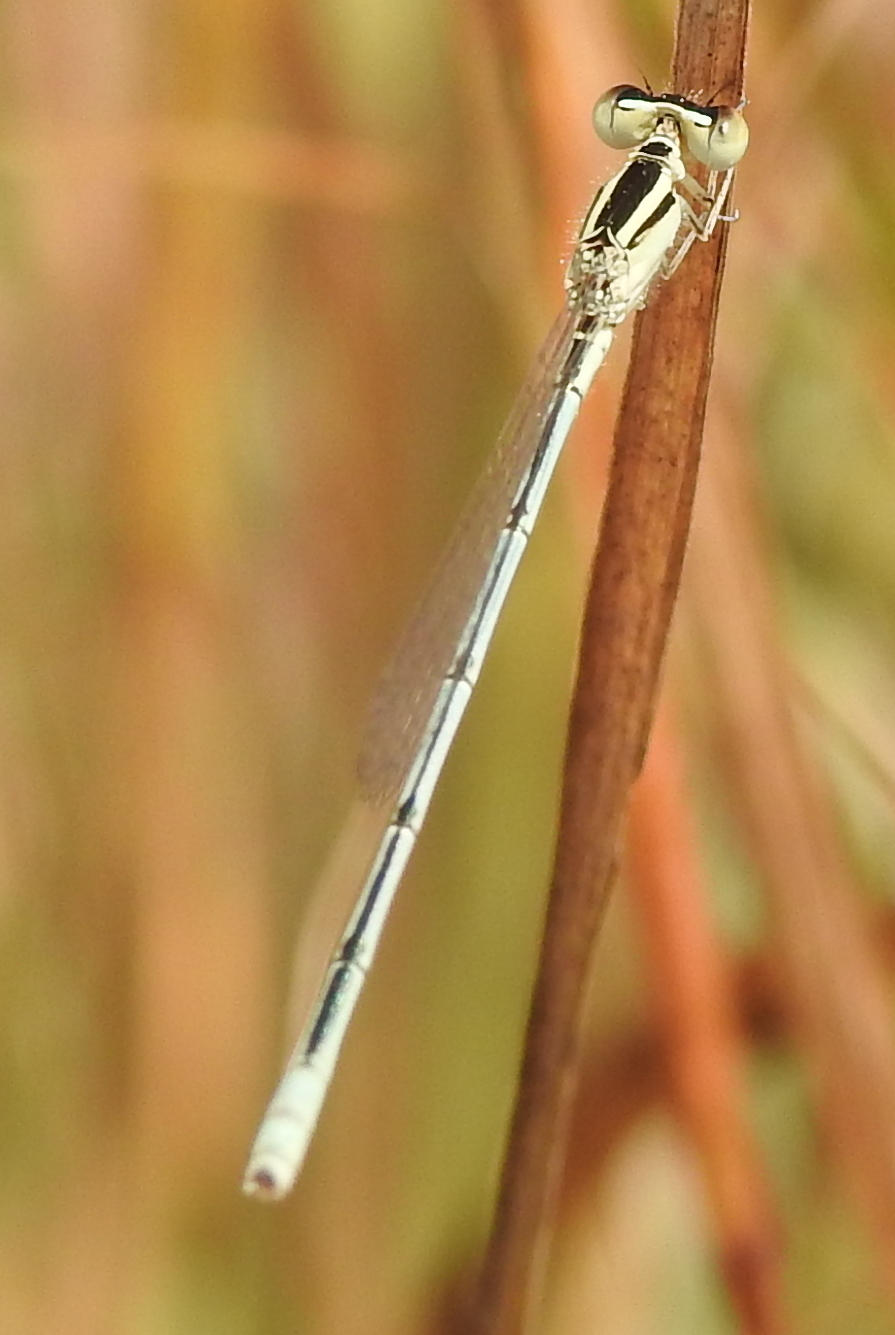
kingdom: Animalia
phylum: Arthropoda
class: Insecta
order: Odonata
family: Coenagrionidae
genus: Amphiallagma
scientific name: Amphiallagma parvum
